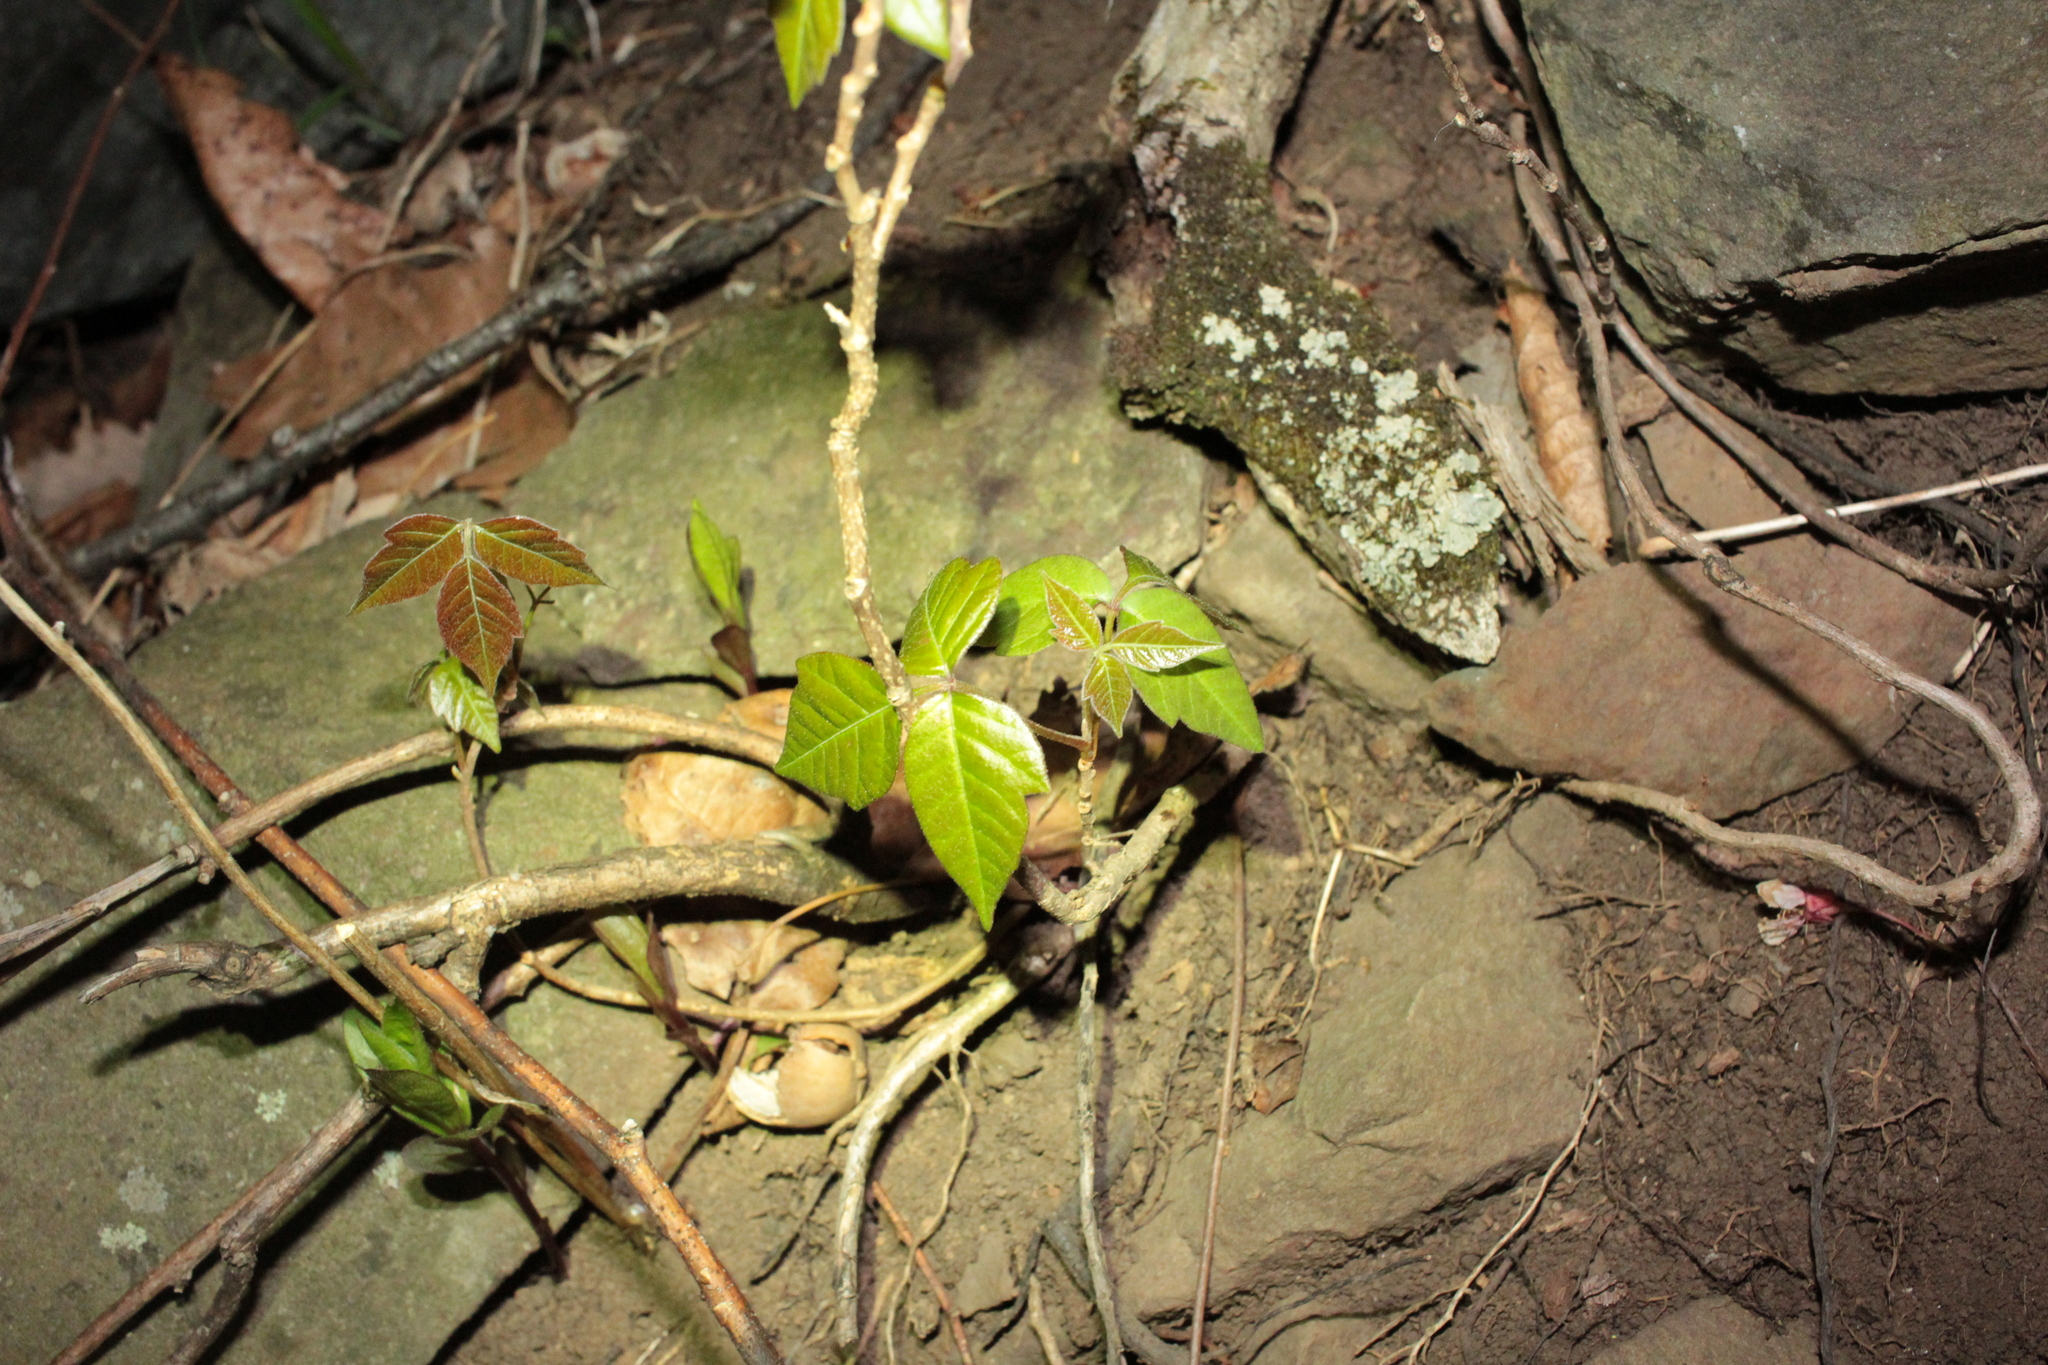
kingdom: Plantae
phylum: Tracheophyta
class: Magnoliopsida
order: Sapindales
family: Anacardiaceae
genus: Toxicodendron
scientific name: Toxicodendron radicans
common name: Poison ivy
